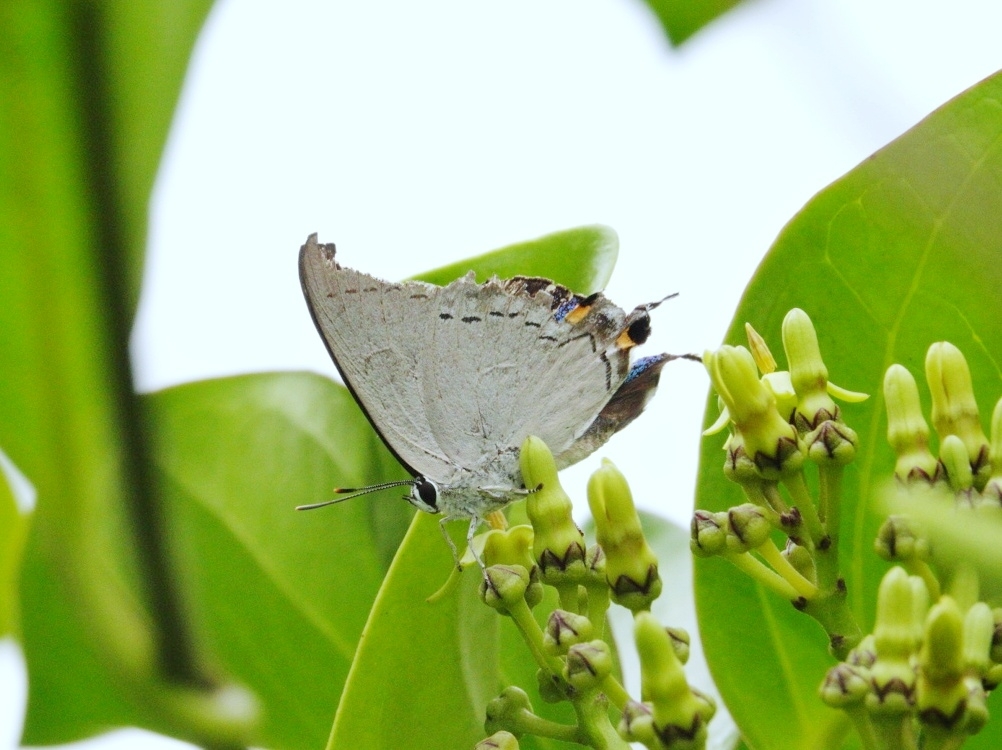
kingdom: Animalia
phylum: Arthropoda
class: Insecta
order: Lepidoptera
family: Lycaenidae
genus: Tajuria
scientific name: Tajuria cippus
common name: Peacock royal
